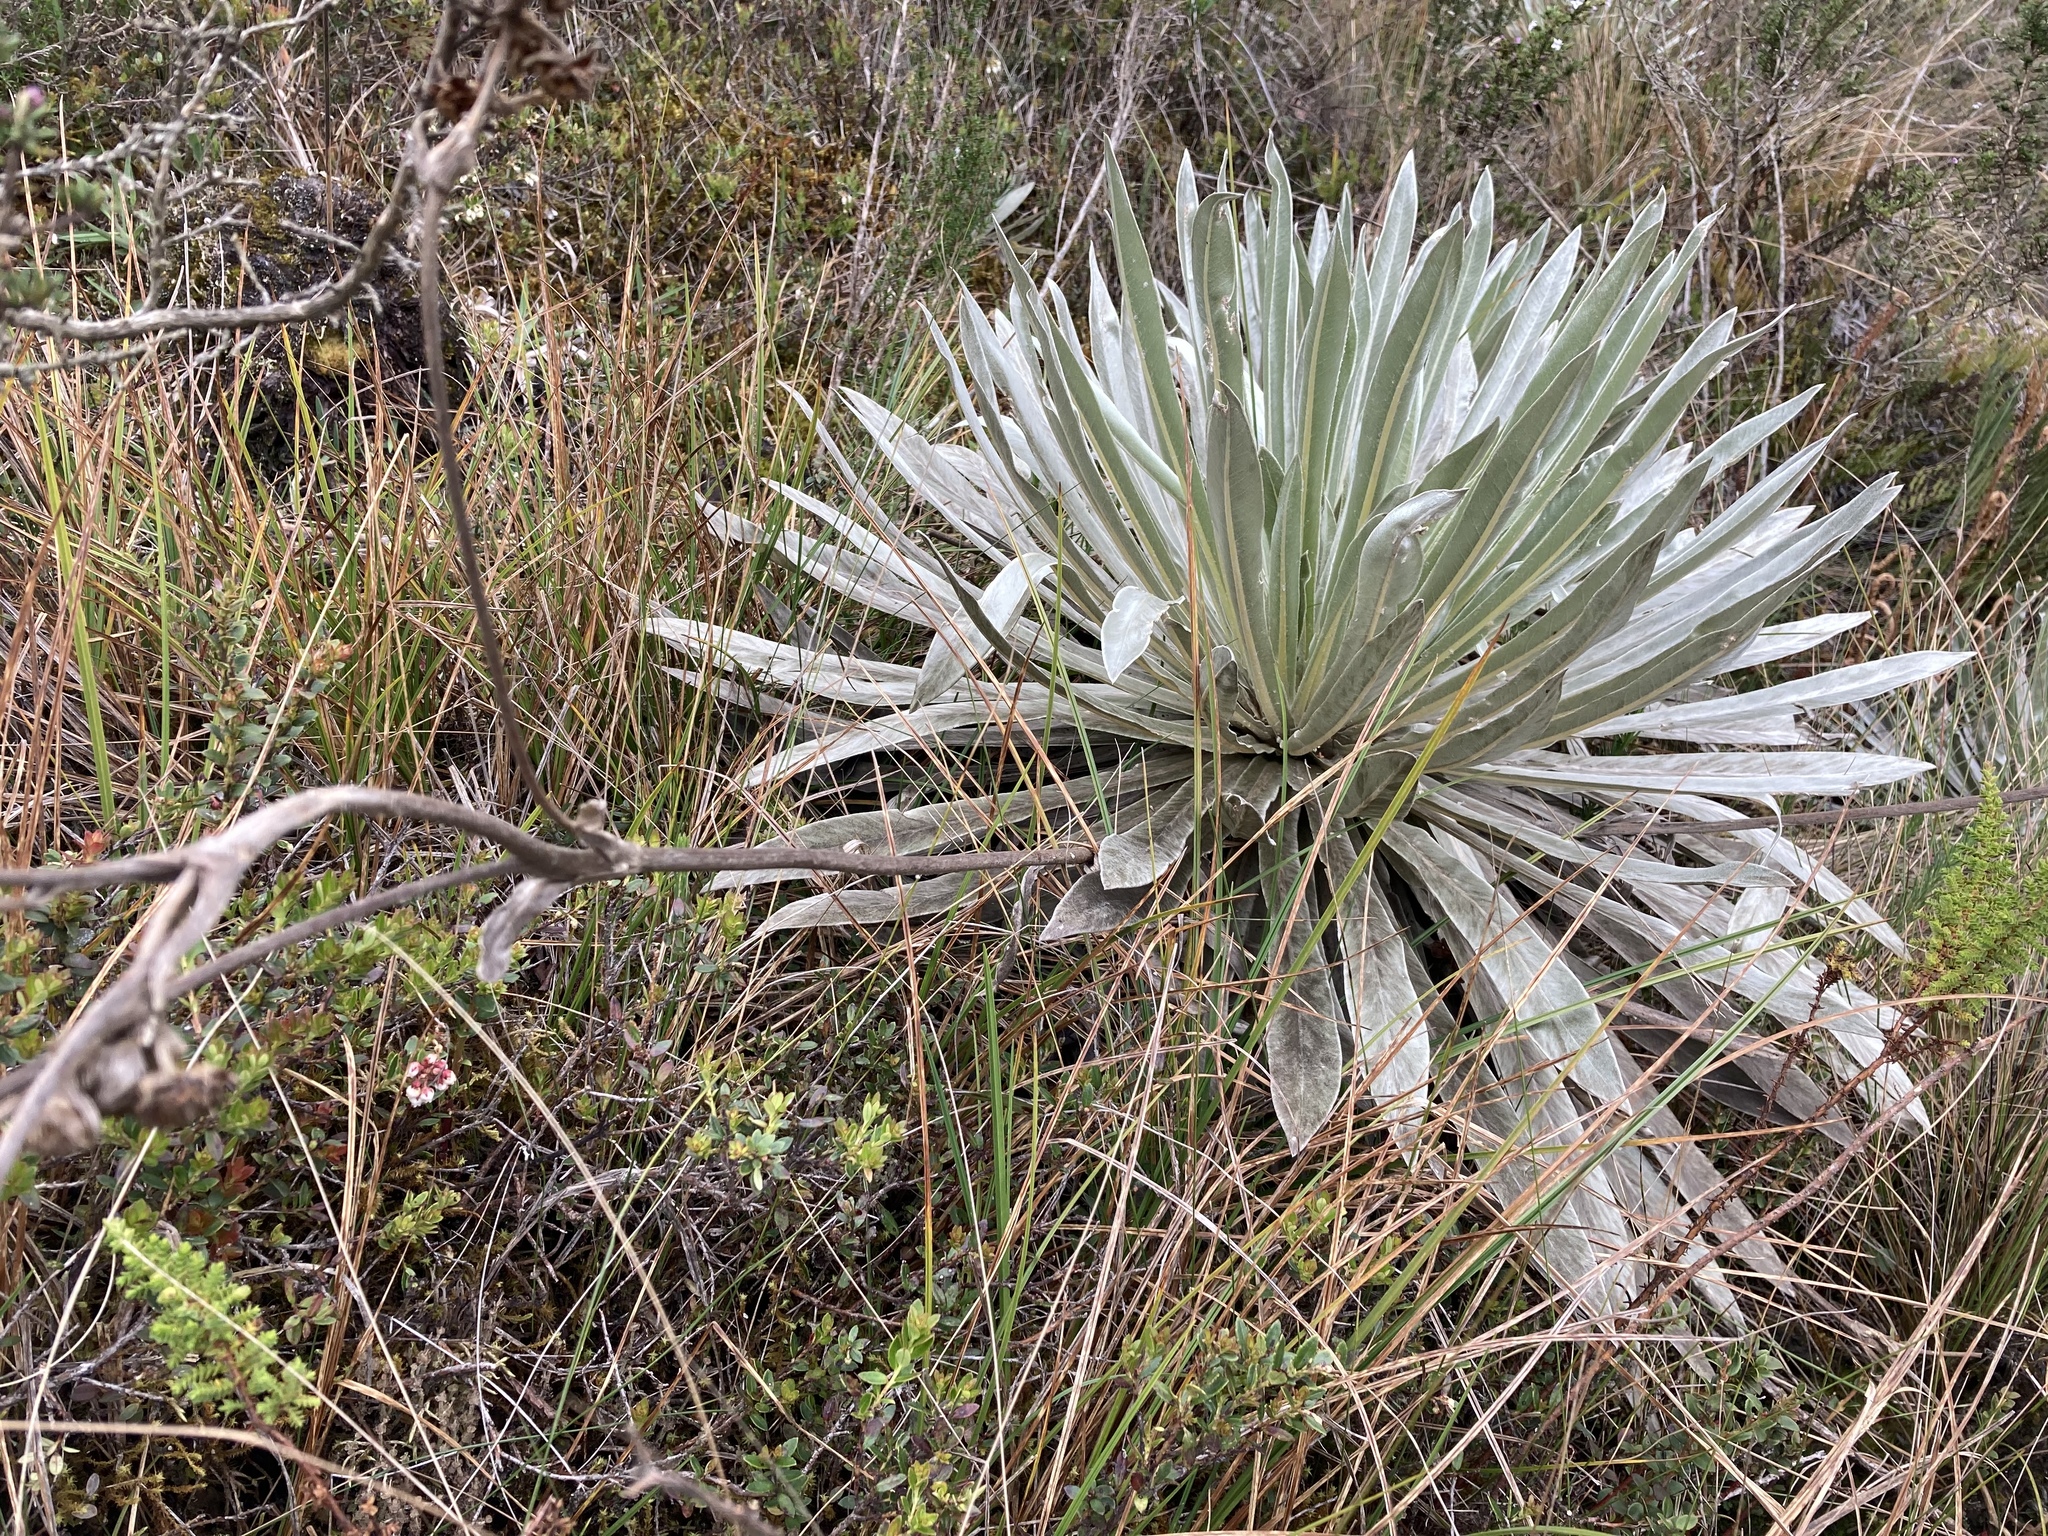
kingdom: Plantae
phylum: Tracheophyta
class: Magnoliopsida
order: Asterales
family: Asteraceae
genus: Espeletia
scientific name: Espeletia argentea
